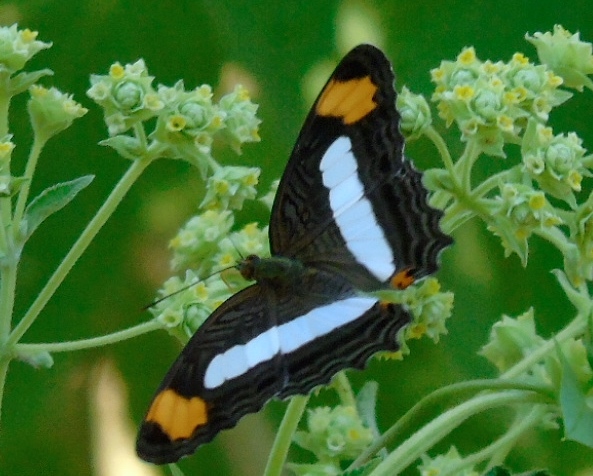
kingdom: Animalia
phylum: Arthropoda
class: Insecta
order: Lepidoptera
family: Nymphalidae
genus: Limenitis
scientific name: Limenitis iphiclus
